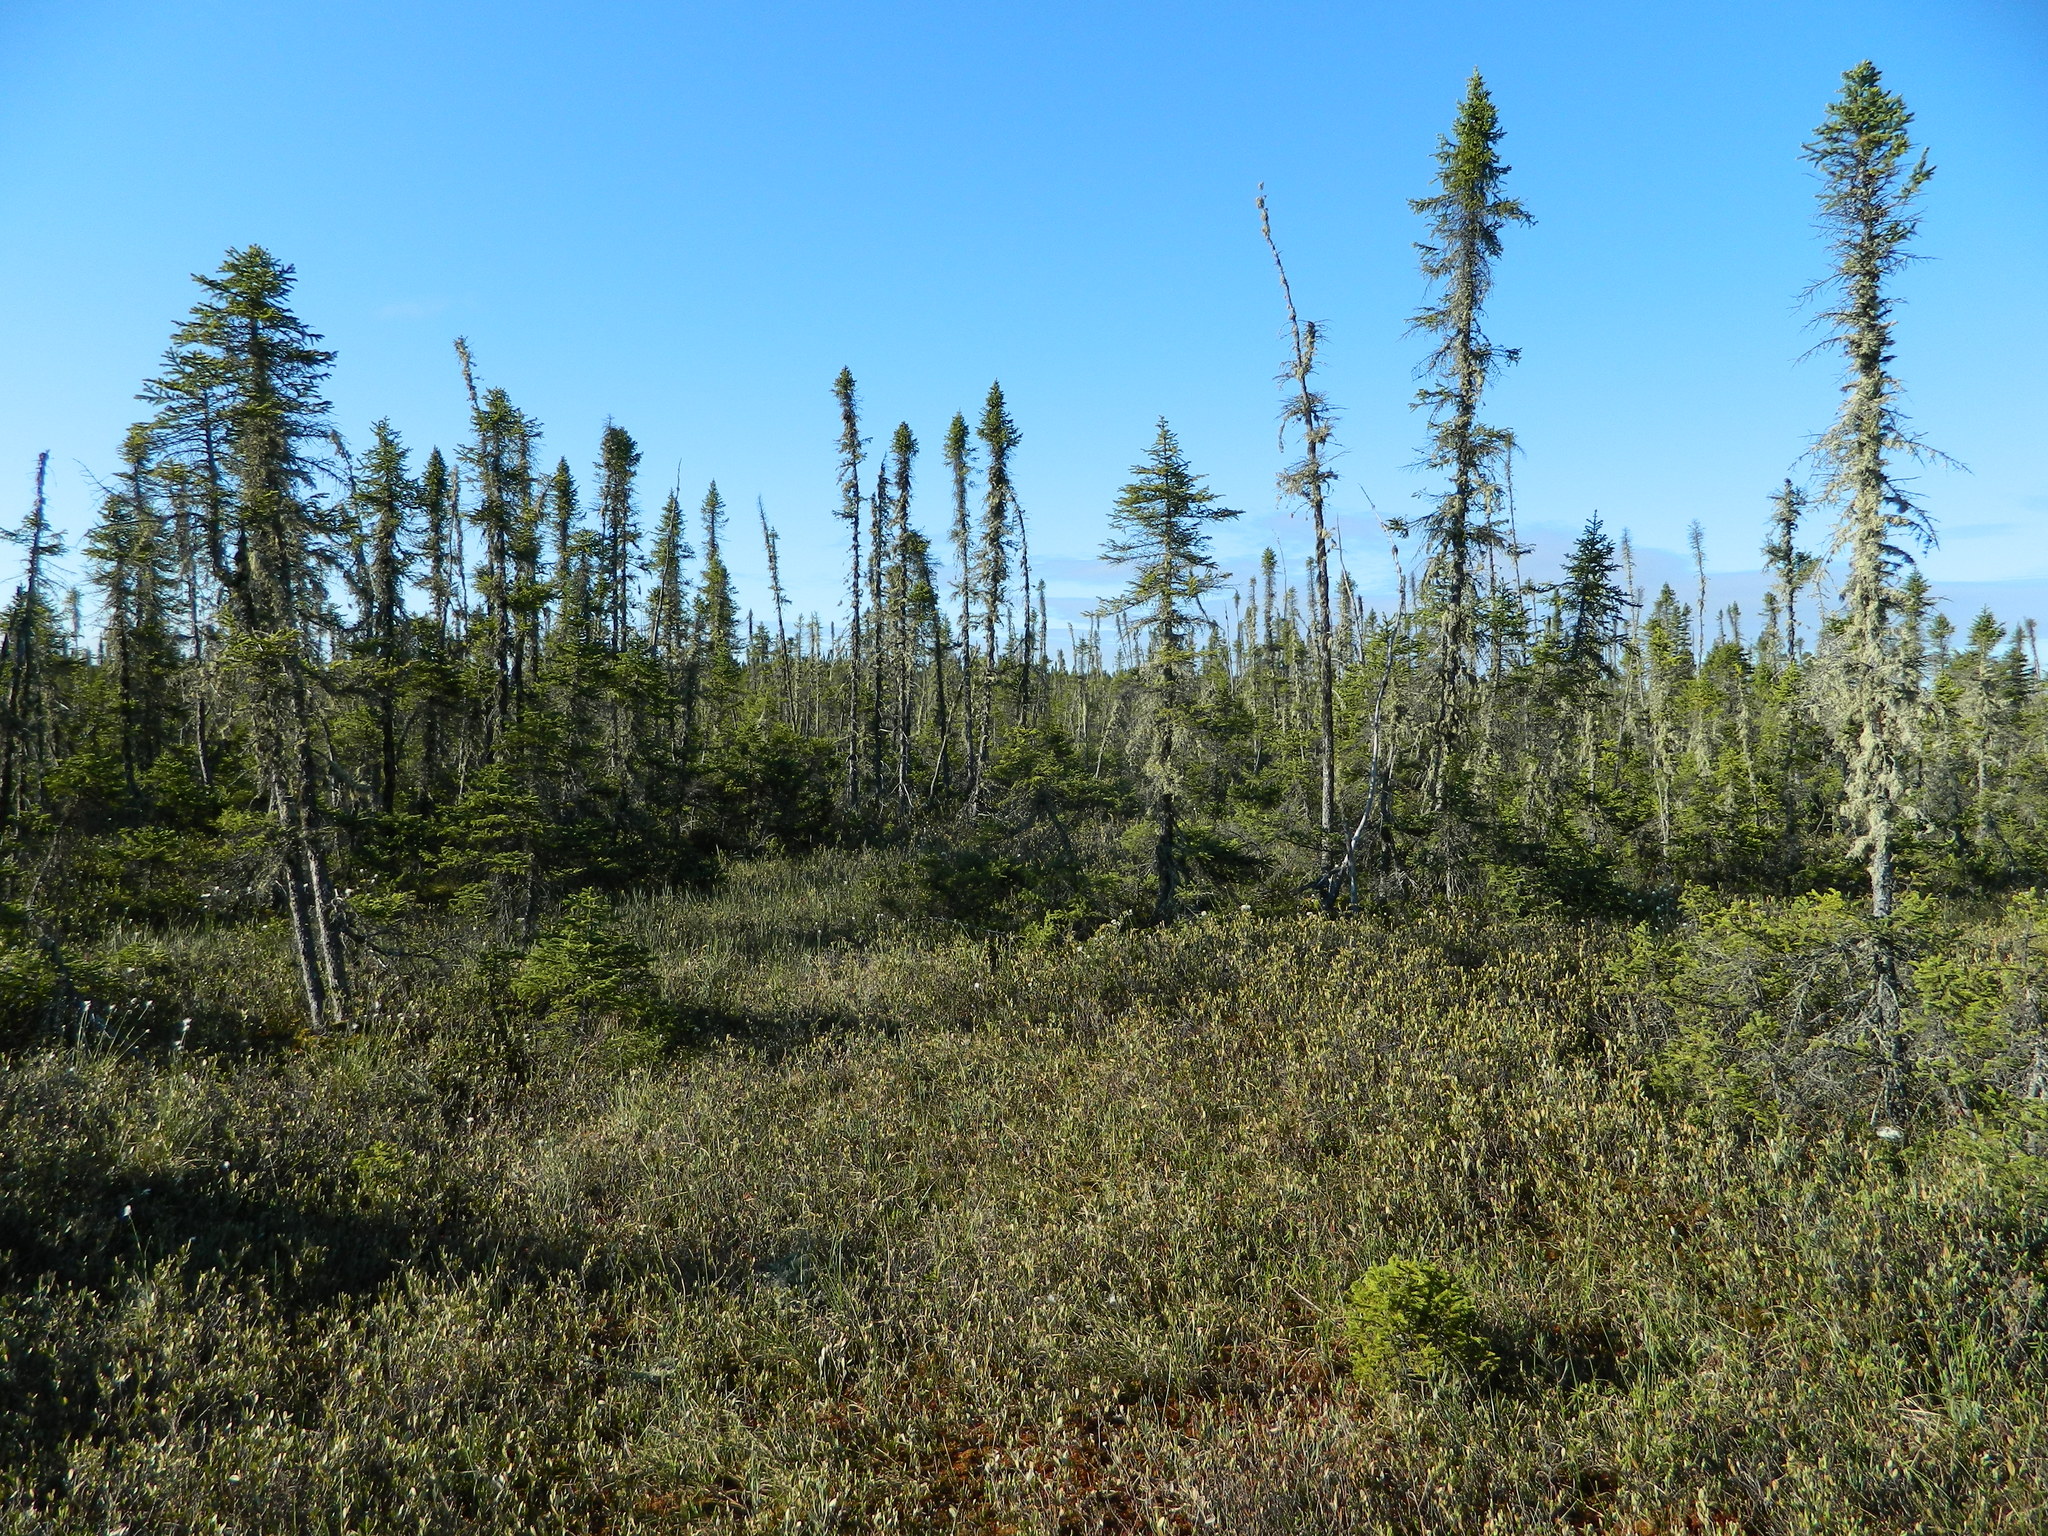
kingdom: Plantae
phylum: Tracheophyta
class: Pinopsida
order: Pinales
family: Pinaceae
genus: Picea
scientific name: Picea mariana
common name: Black spruce
